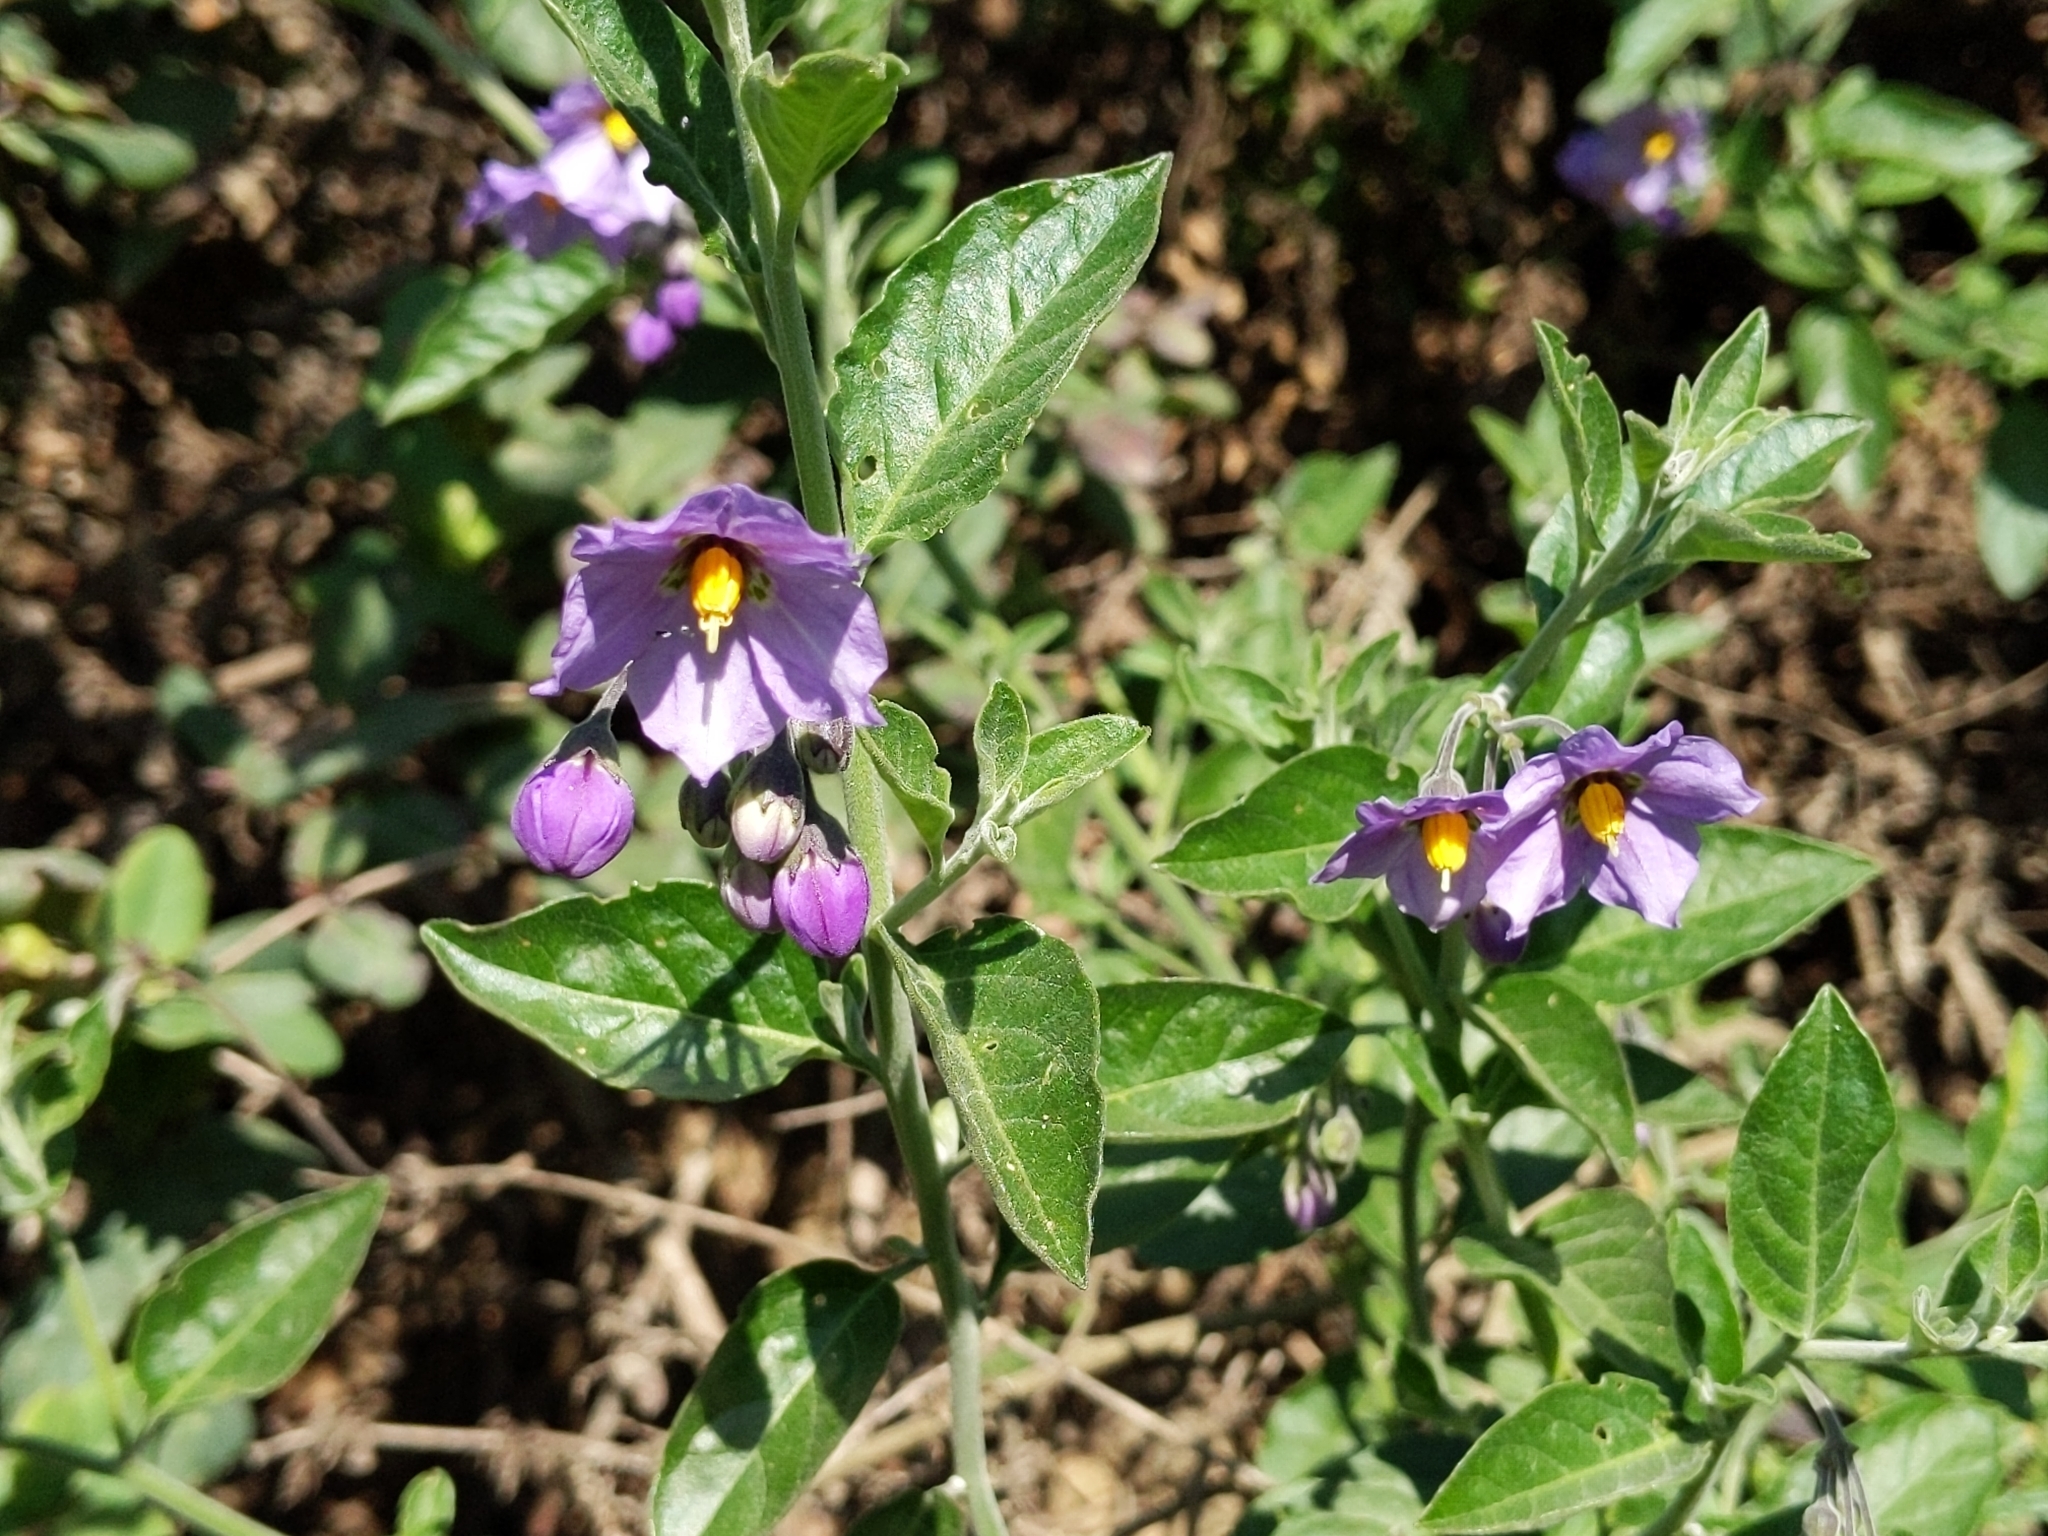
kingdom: Plantae
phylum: Tracheophyta
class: Magnoliopsida
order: Solanales
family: Solanaceae
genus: Solanum
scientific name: Solanum umbelliferum
